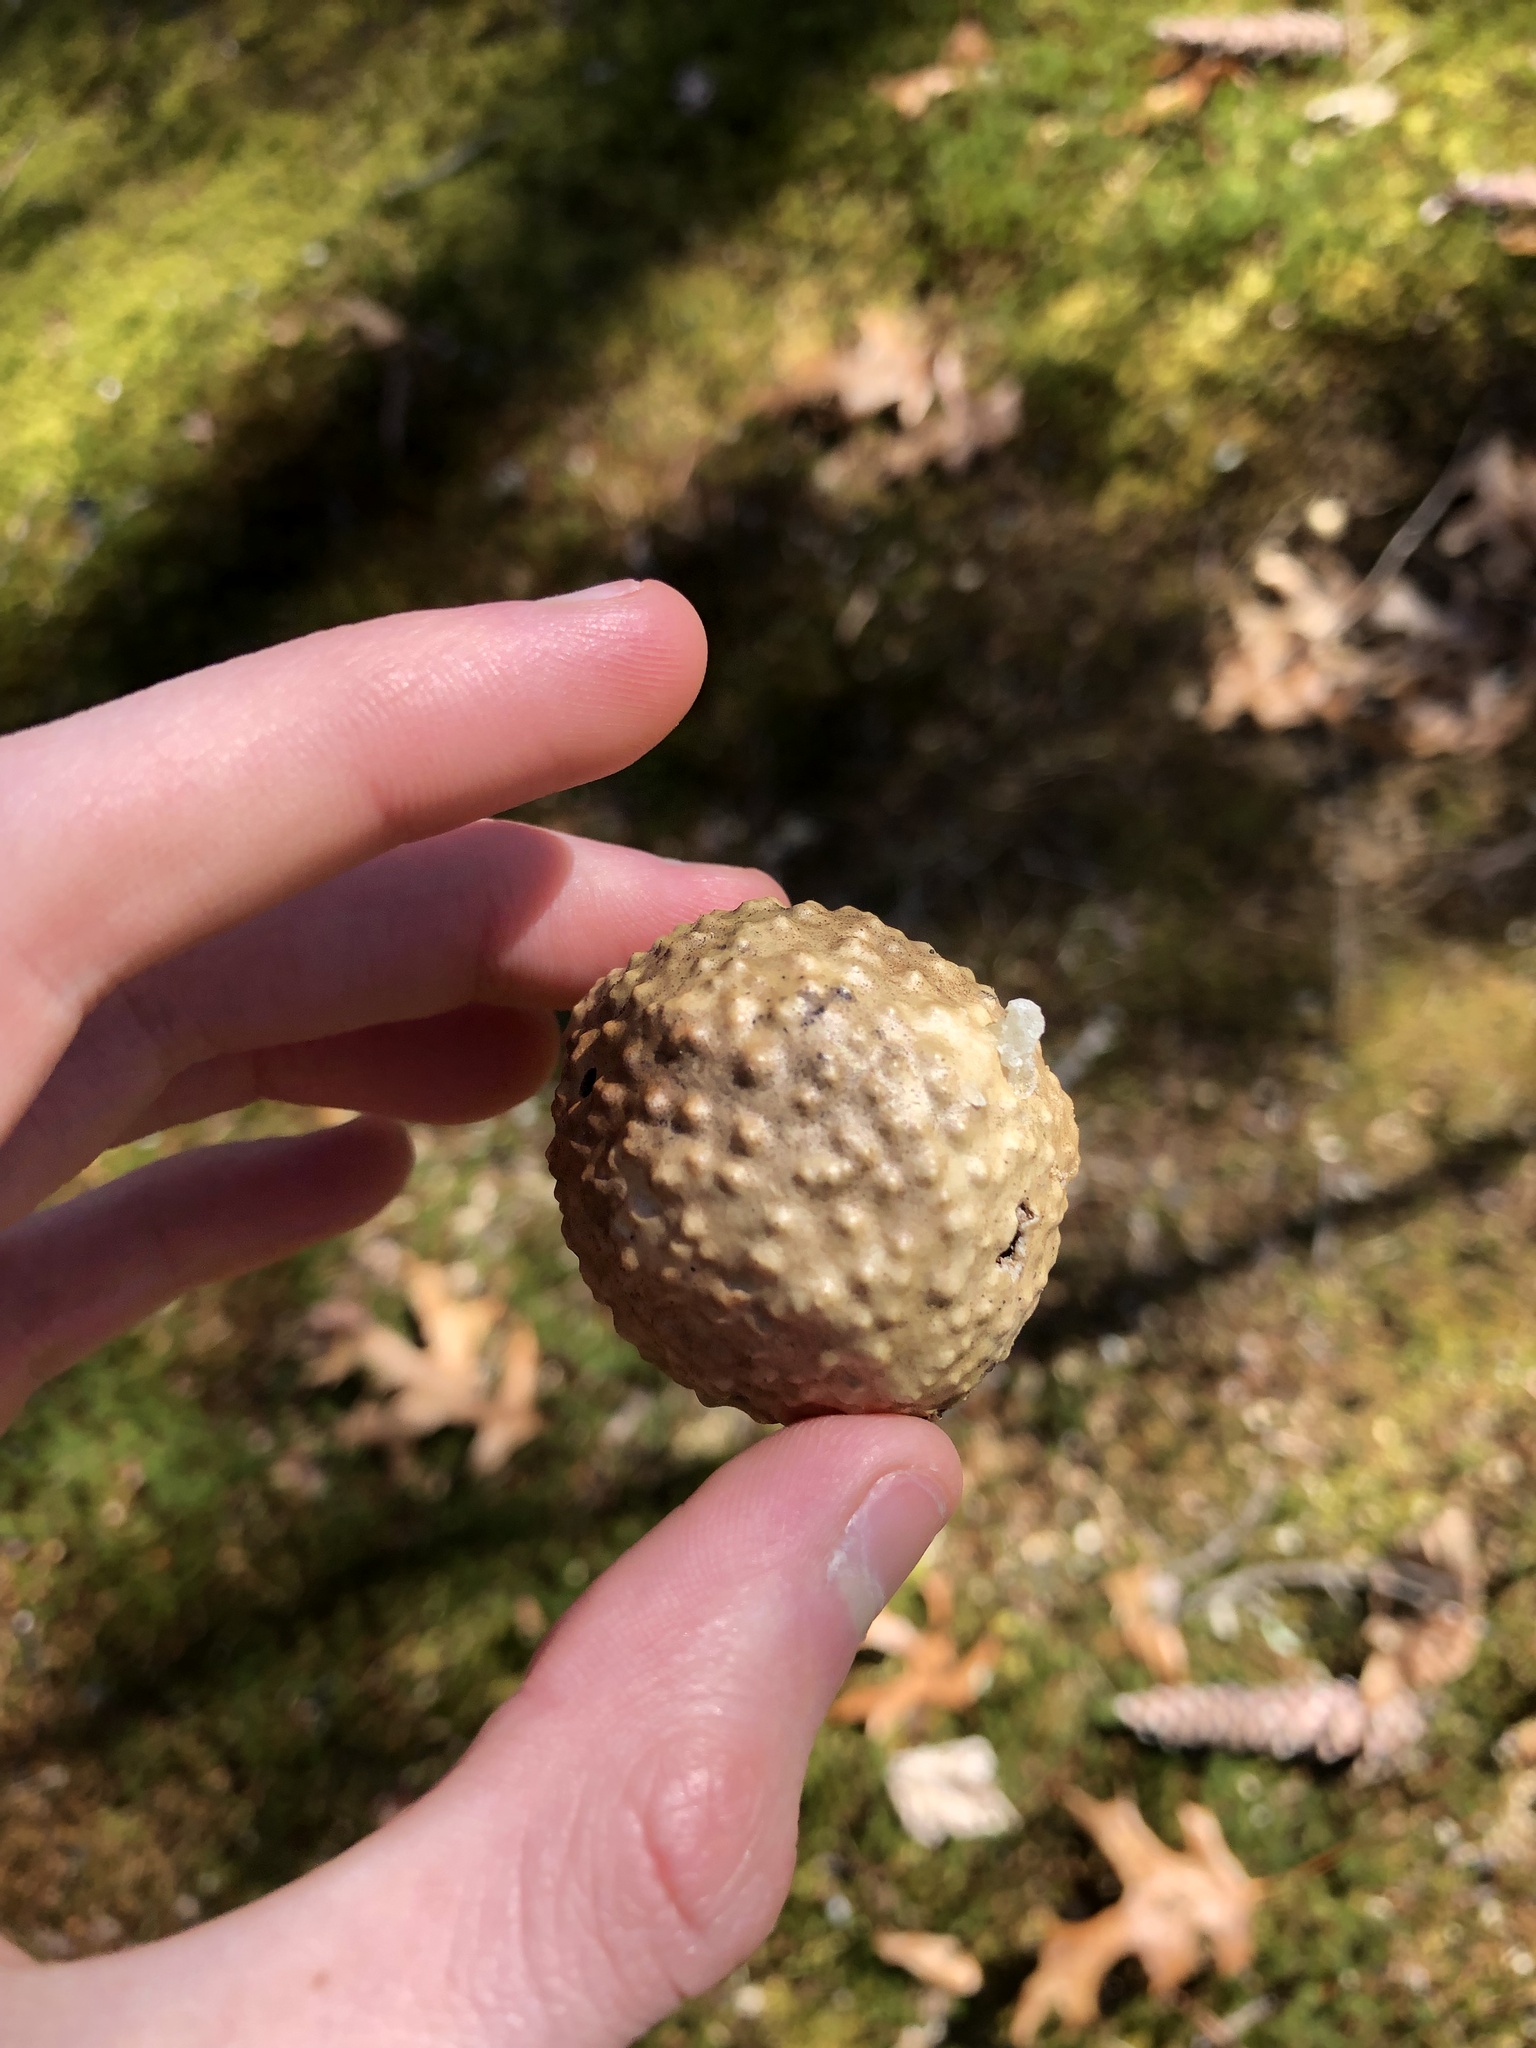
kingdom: Animalia
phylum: Arthropoda
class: Insecta
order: Hymenoptera
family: Cynipidae
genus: Amphibolips
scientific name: Amphibolips
